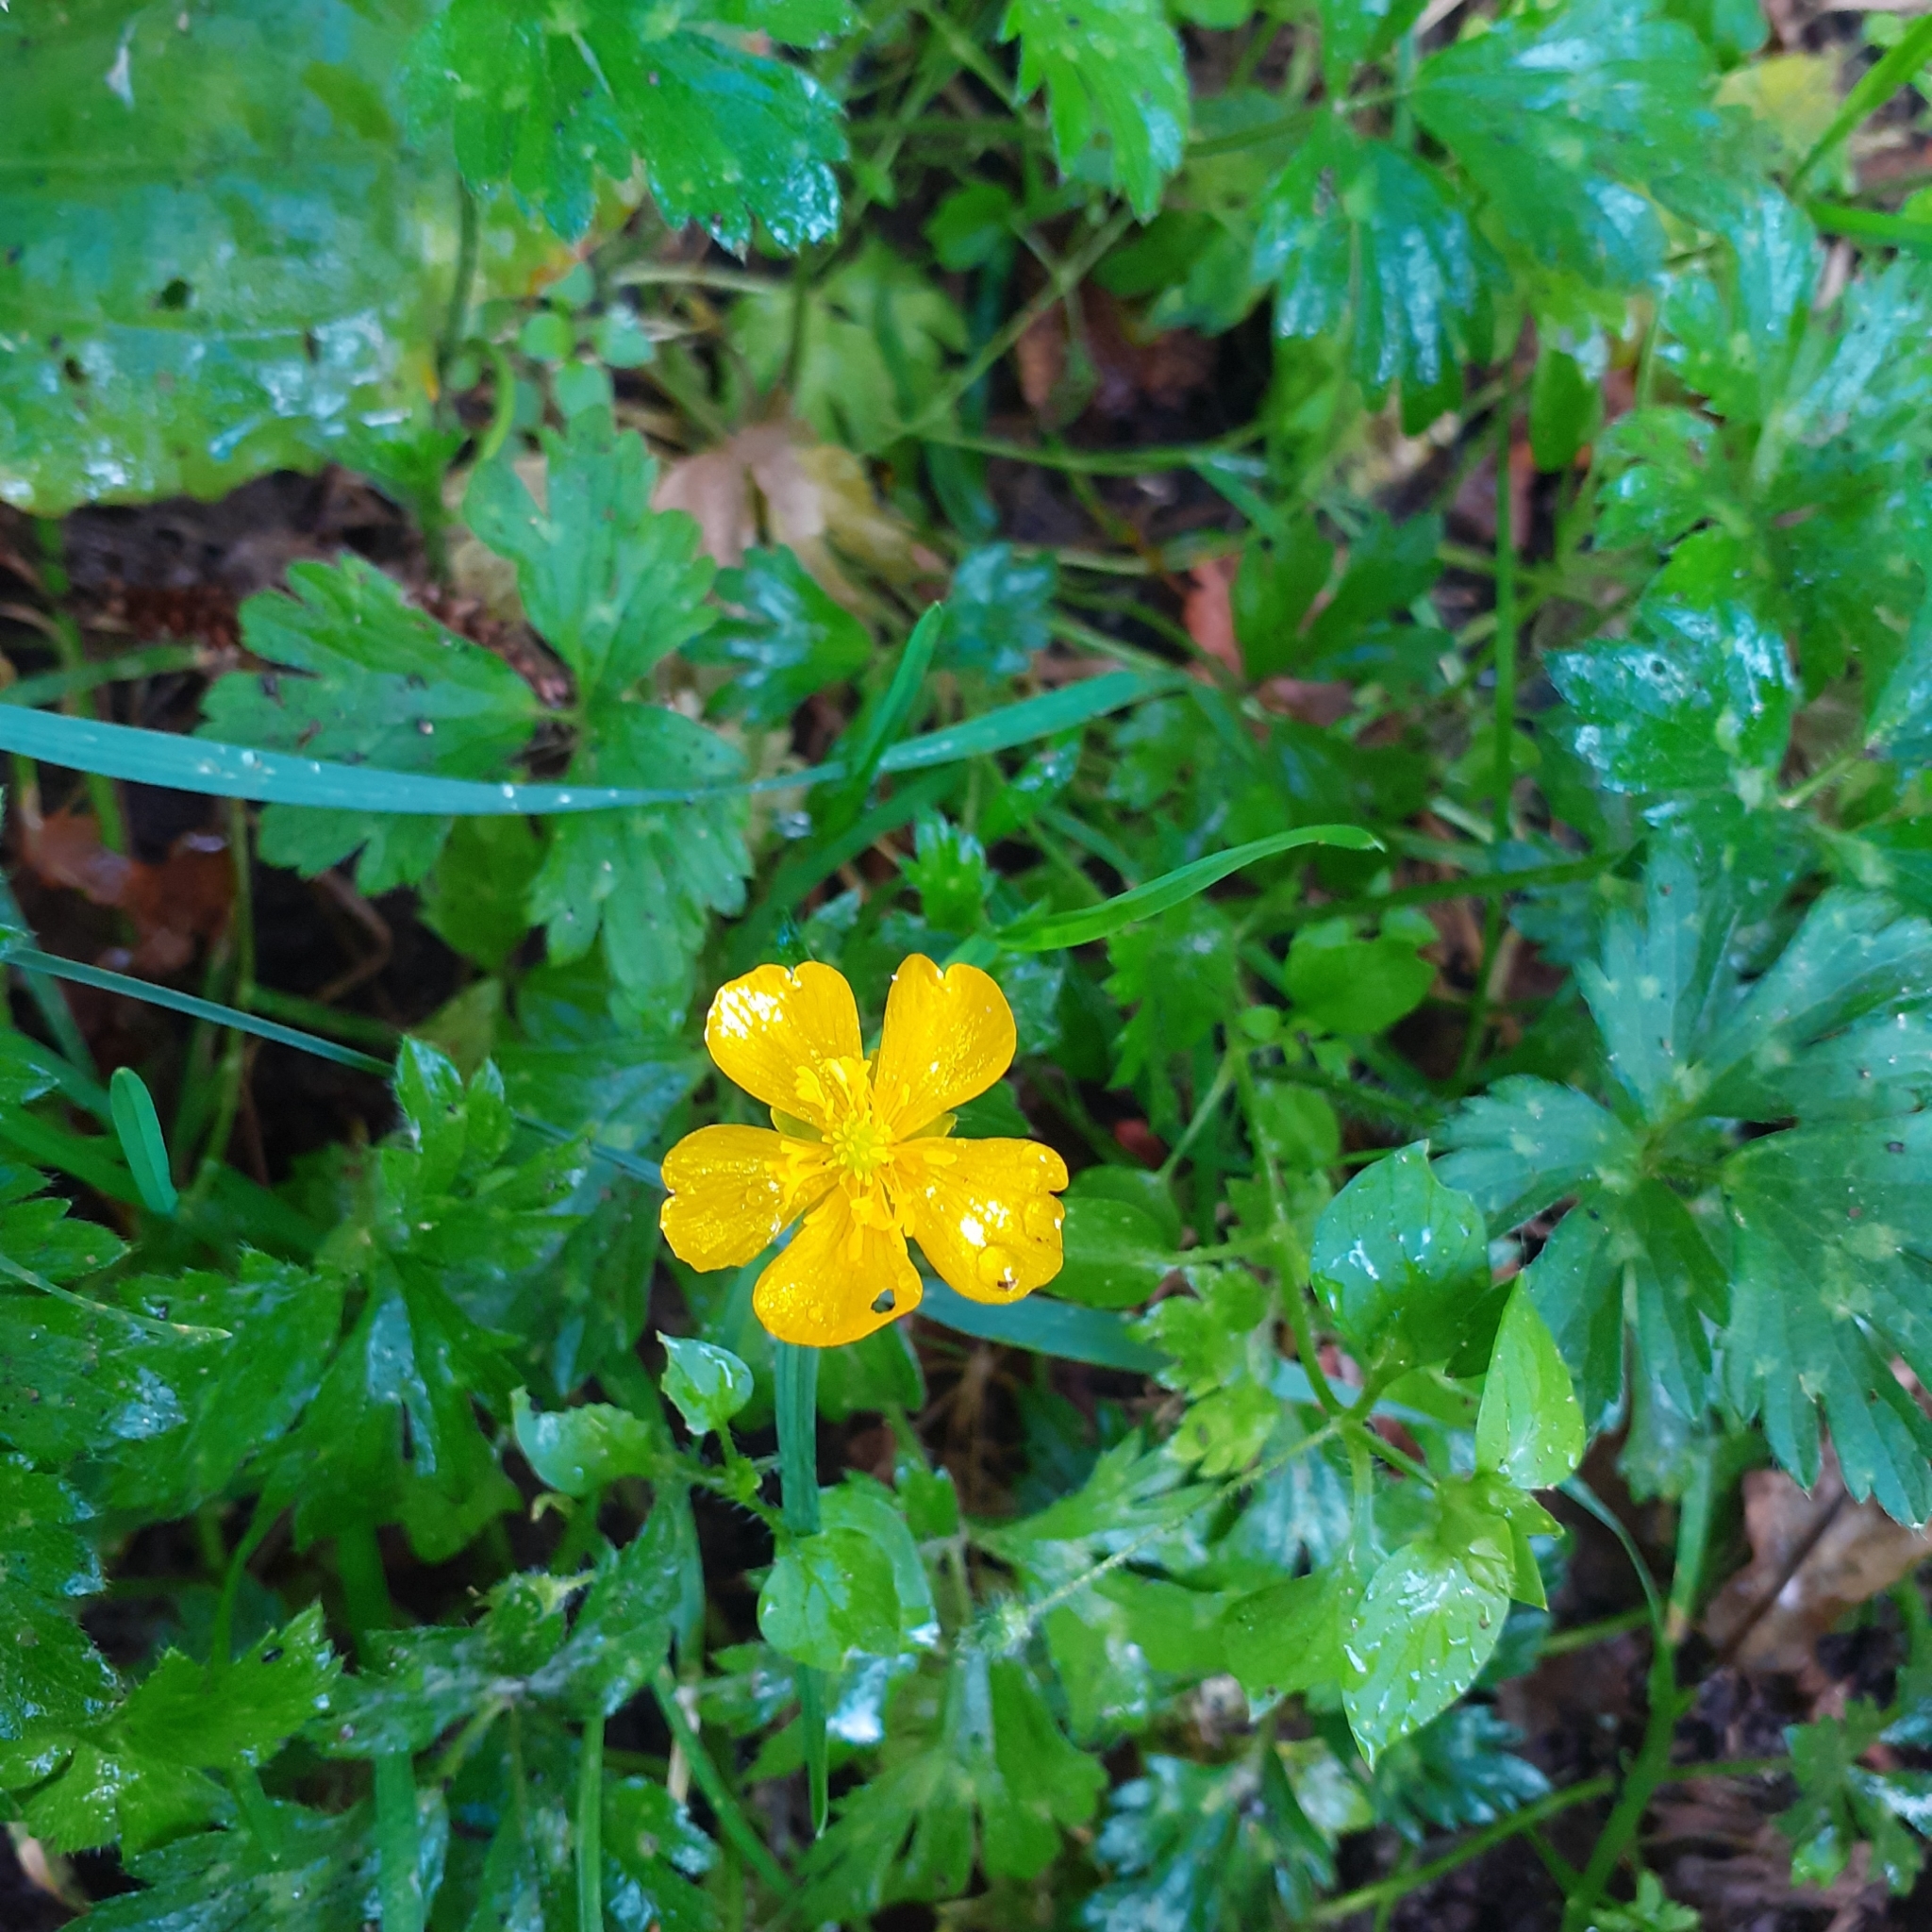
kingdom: Plantae
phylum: Tracheophyta
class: Magnoliopsida
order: Ranunculales
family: Ranunculaceae
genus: Ranunculus
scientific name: Ranunculus repens
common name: Creeping buttercup
